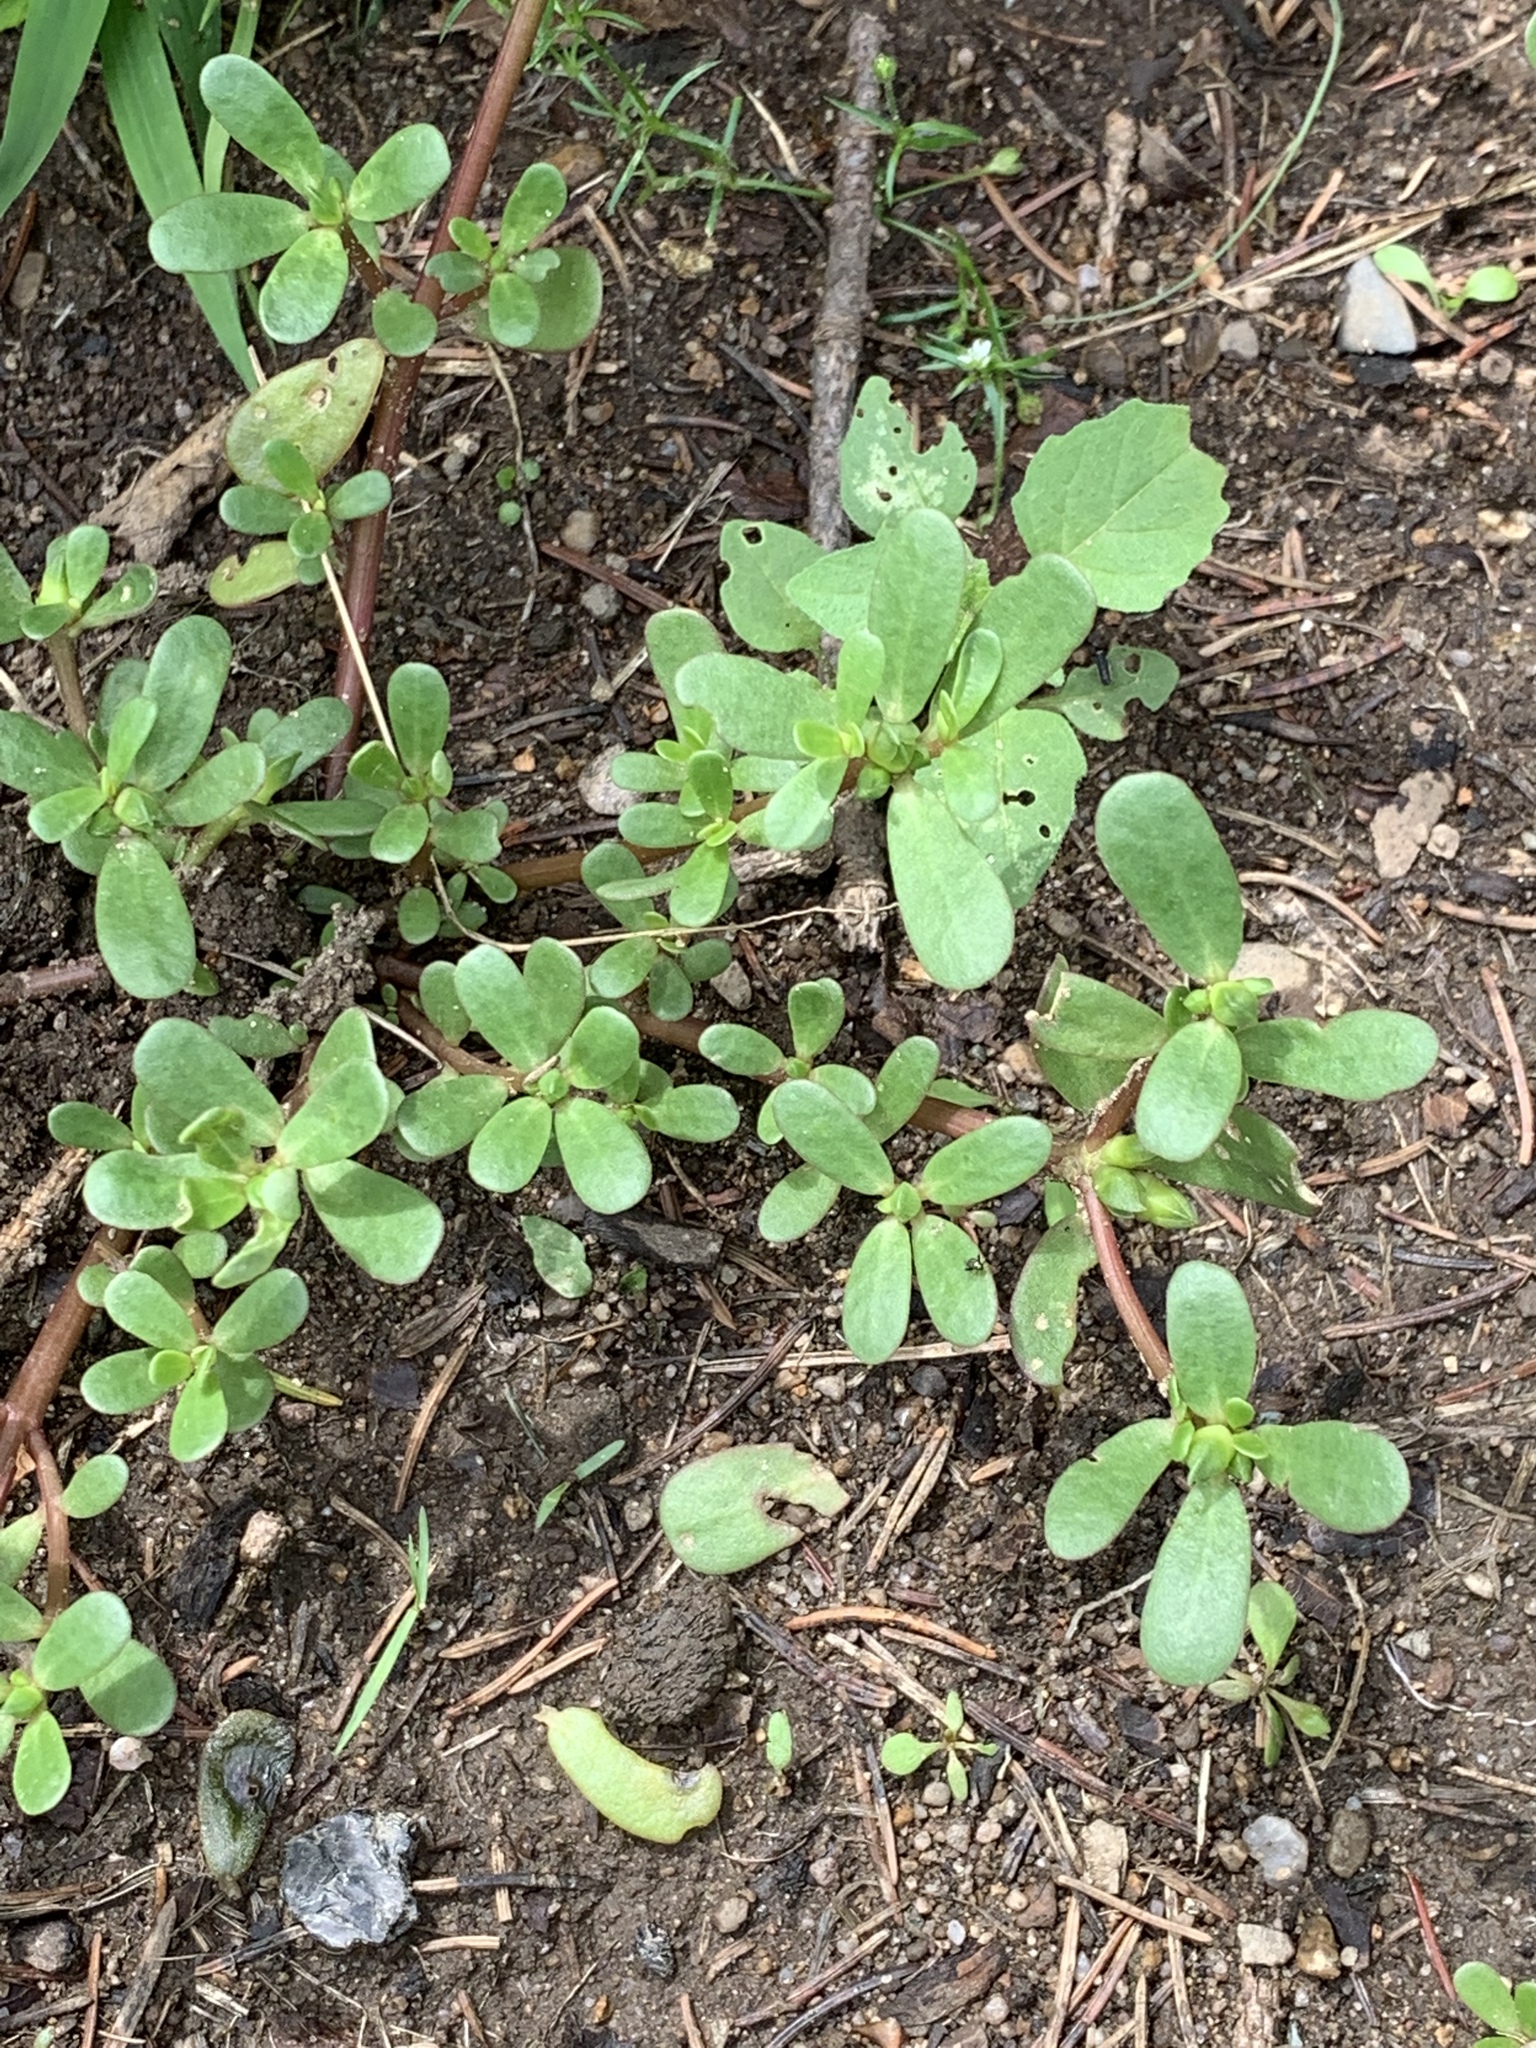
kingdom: Plantae
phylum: Tracheophyta
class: Magnoliopsida
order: Caryophyllales
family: Portulacaceae
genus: Portulaca
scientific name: Portulaca oleracea
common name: Common purslane
